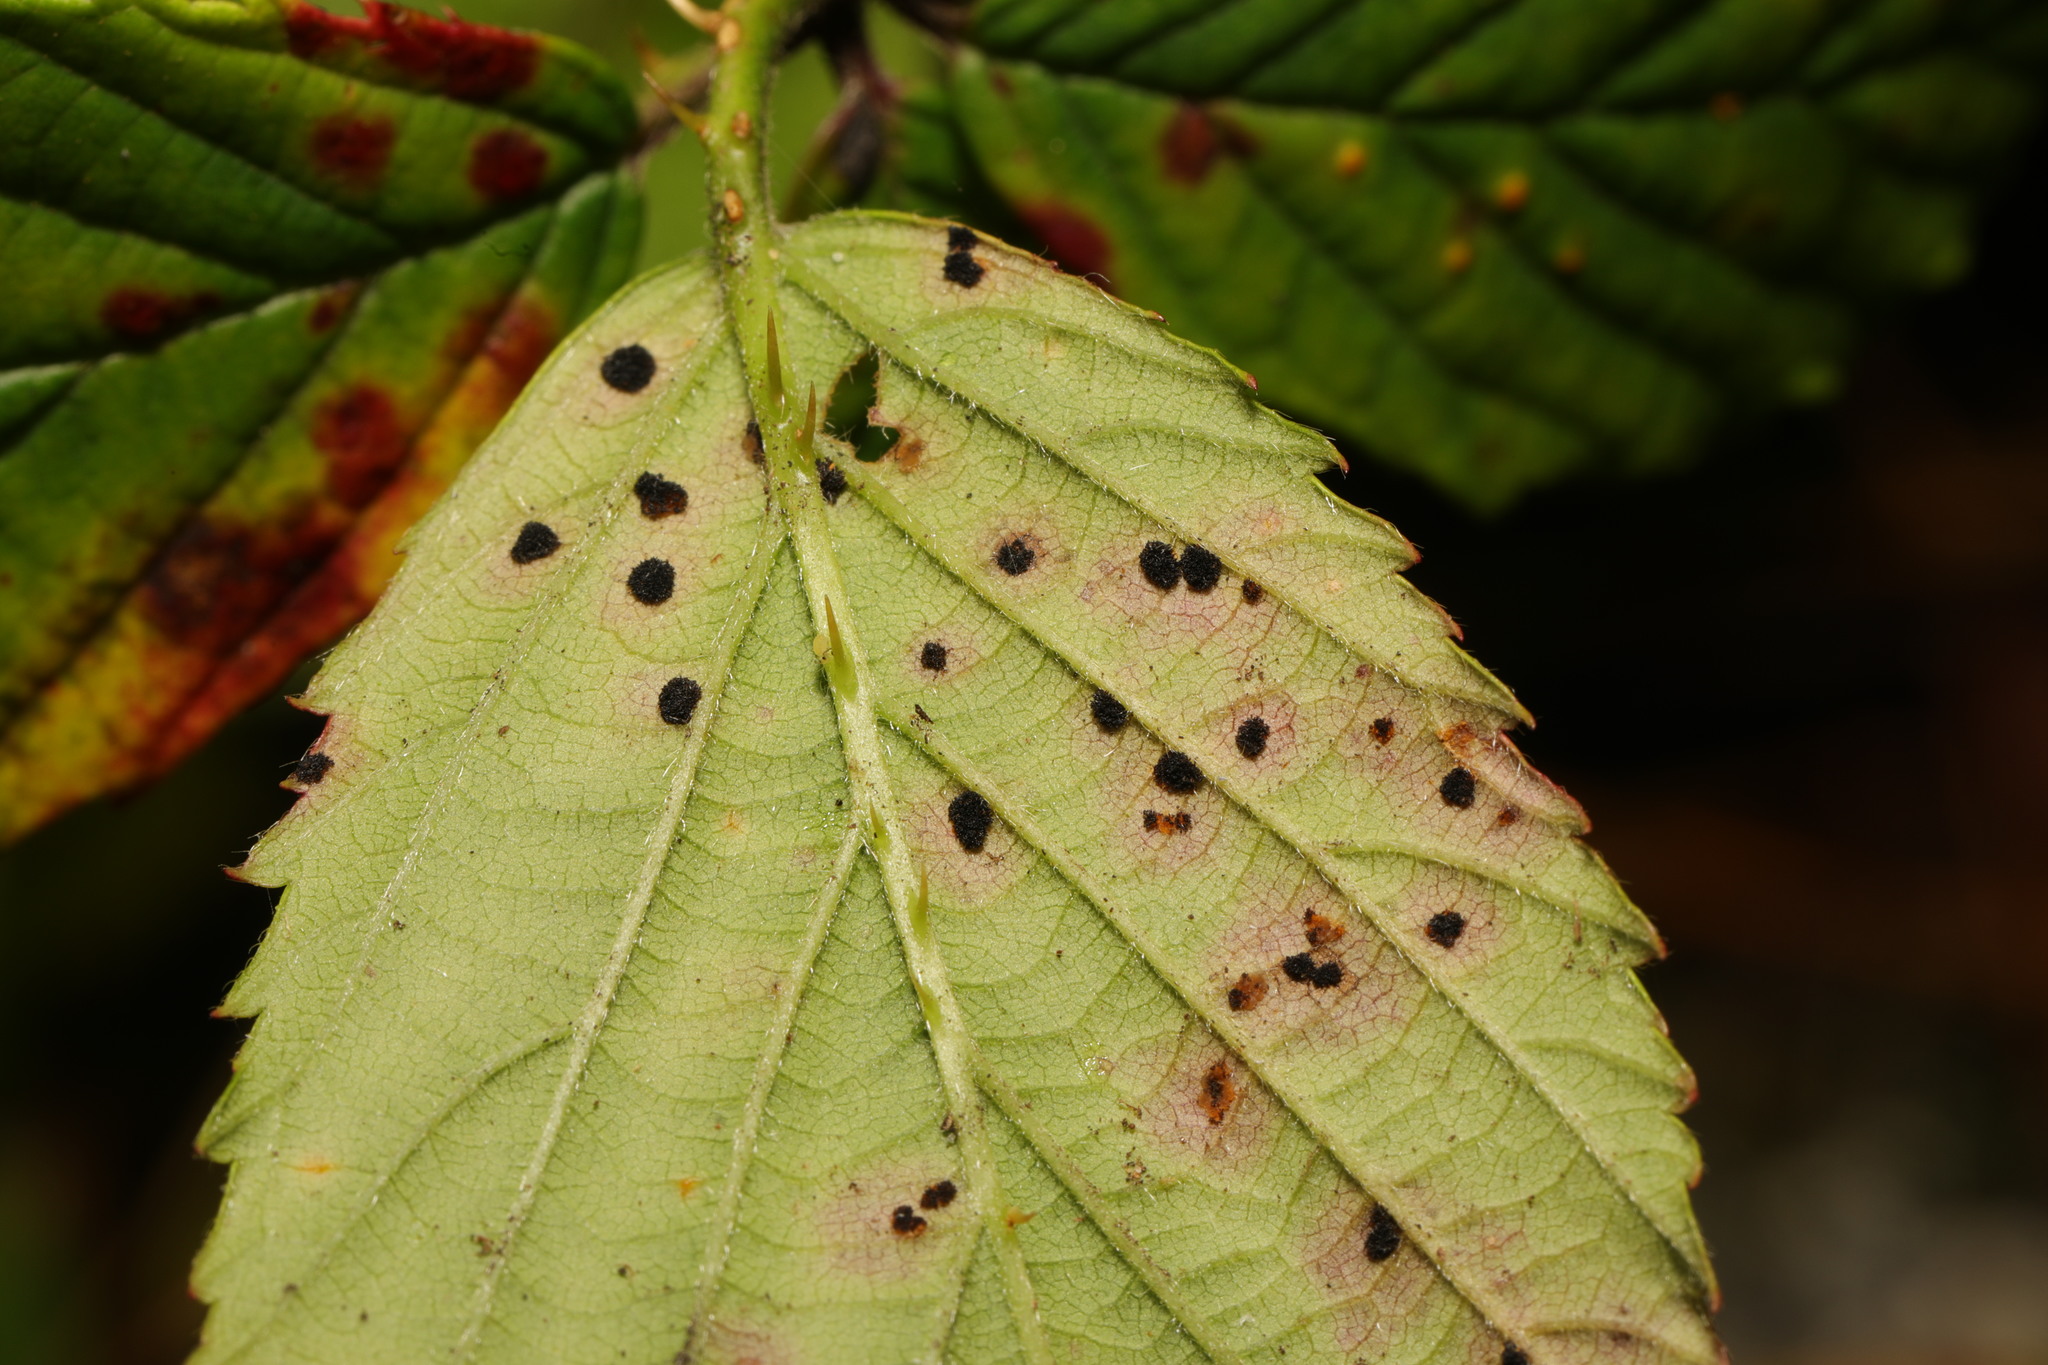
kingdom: Fungi
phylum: Basidiomycota
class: Pucciniomycetes
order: Pucciniales
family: Phragmidiaceae
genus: Phragmidium
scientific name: Phragmidium violaceum
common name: Violet bramble rust
